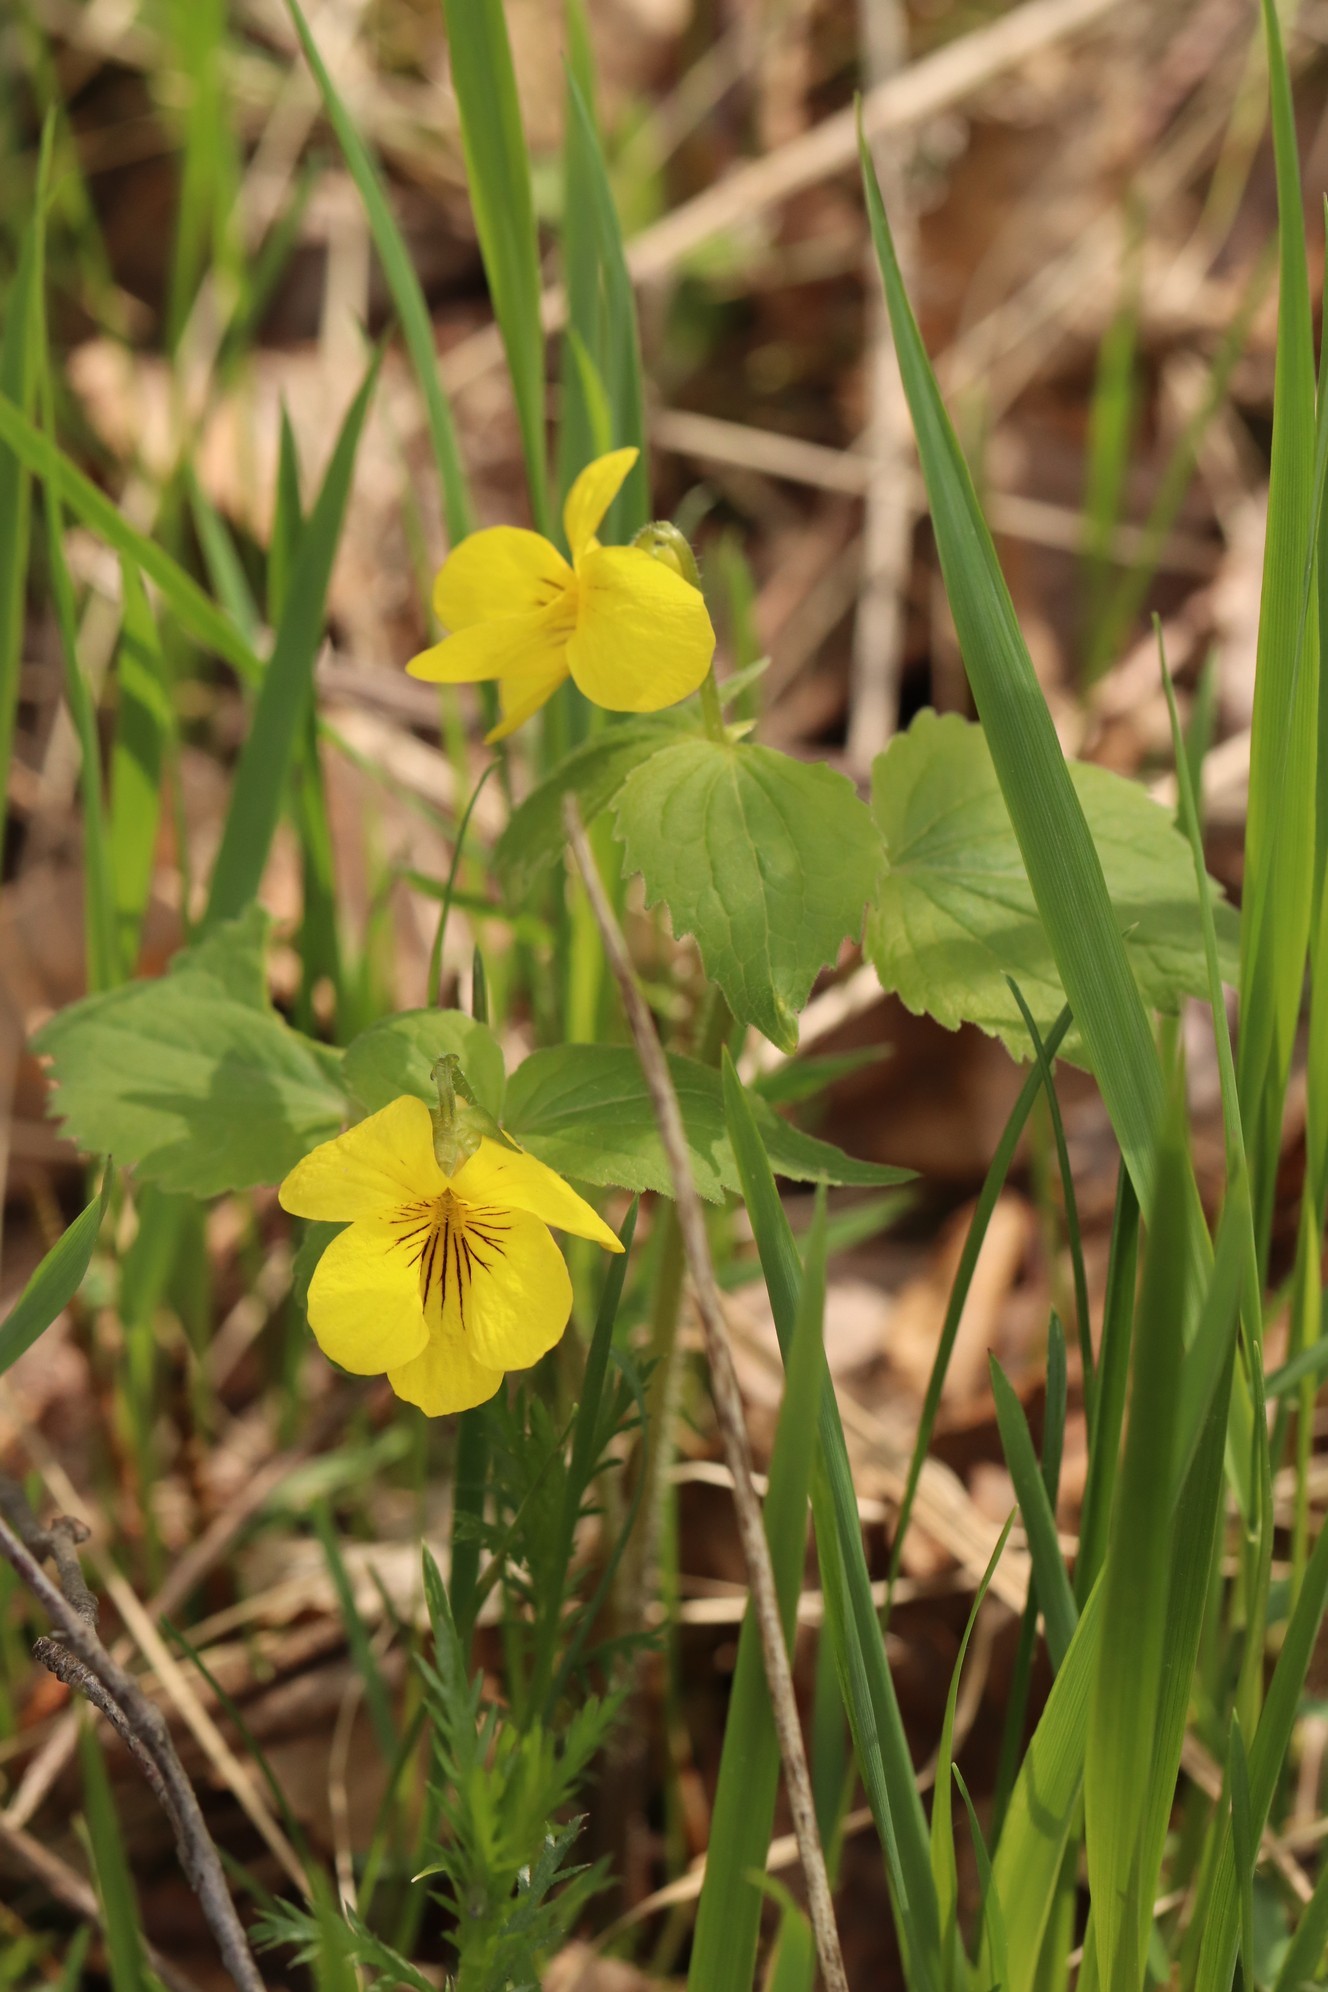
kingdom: Plantae
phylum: Tracheophyta
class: Magnoliopsida
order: Malpighiales
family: Violaceae
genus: Viola
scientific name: Viola uniflora
